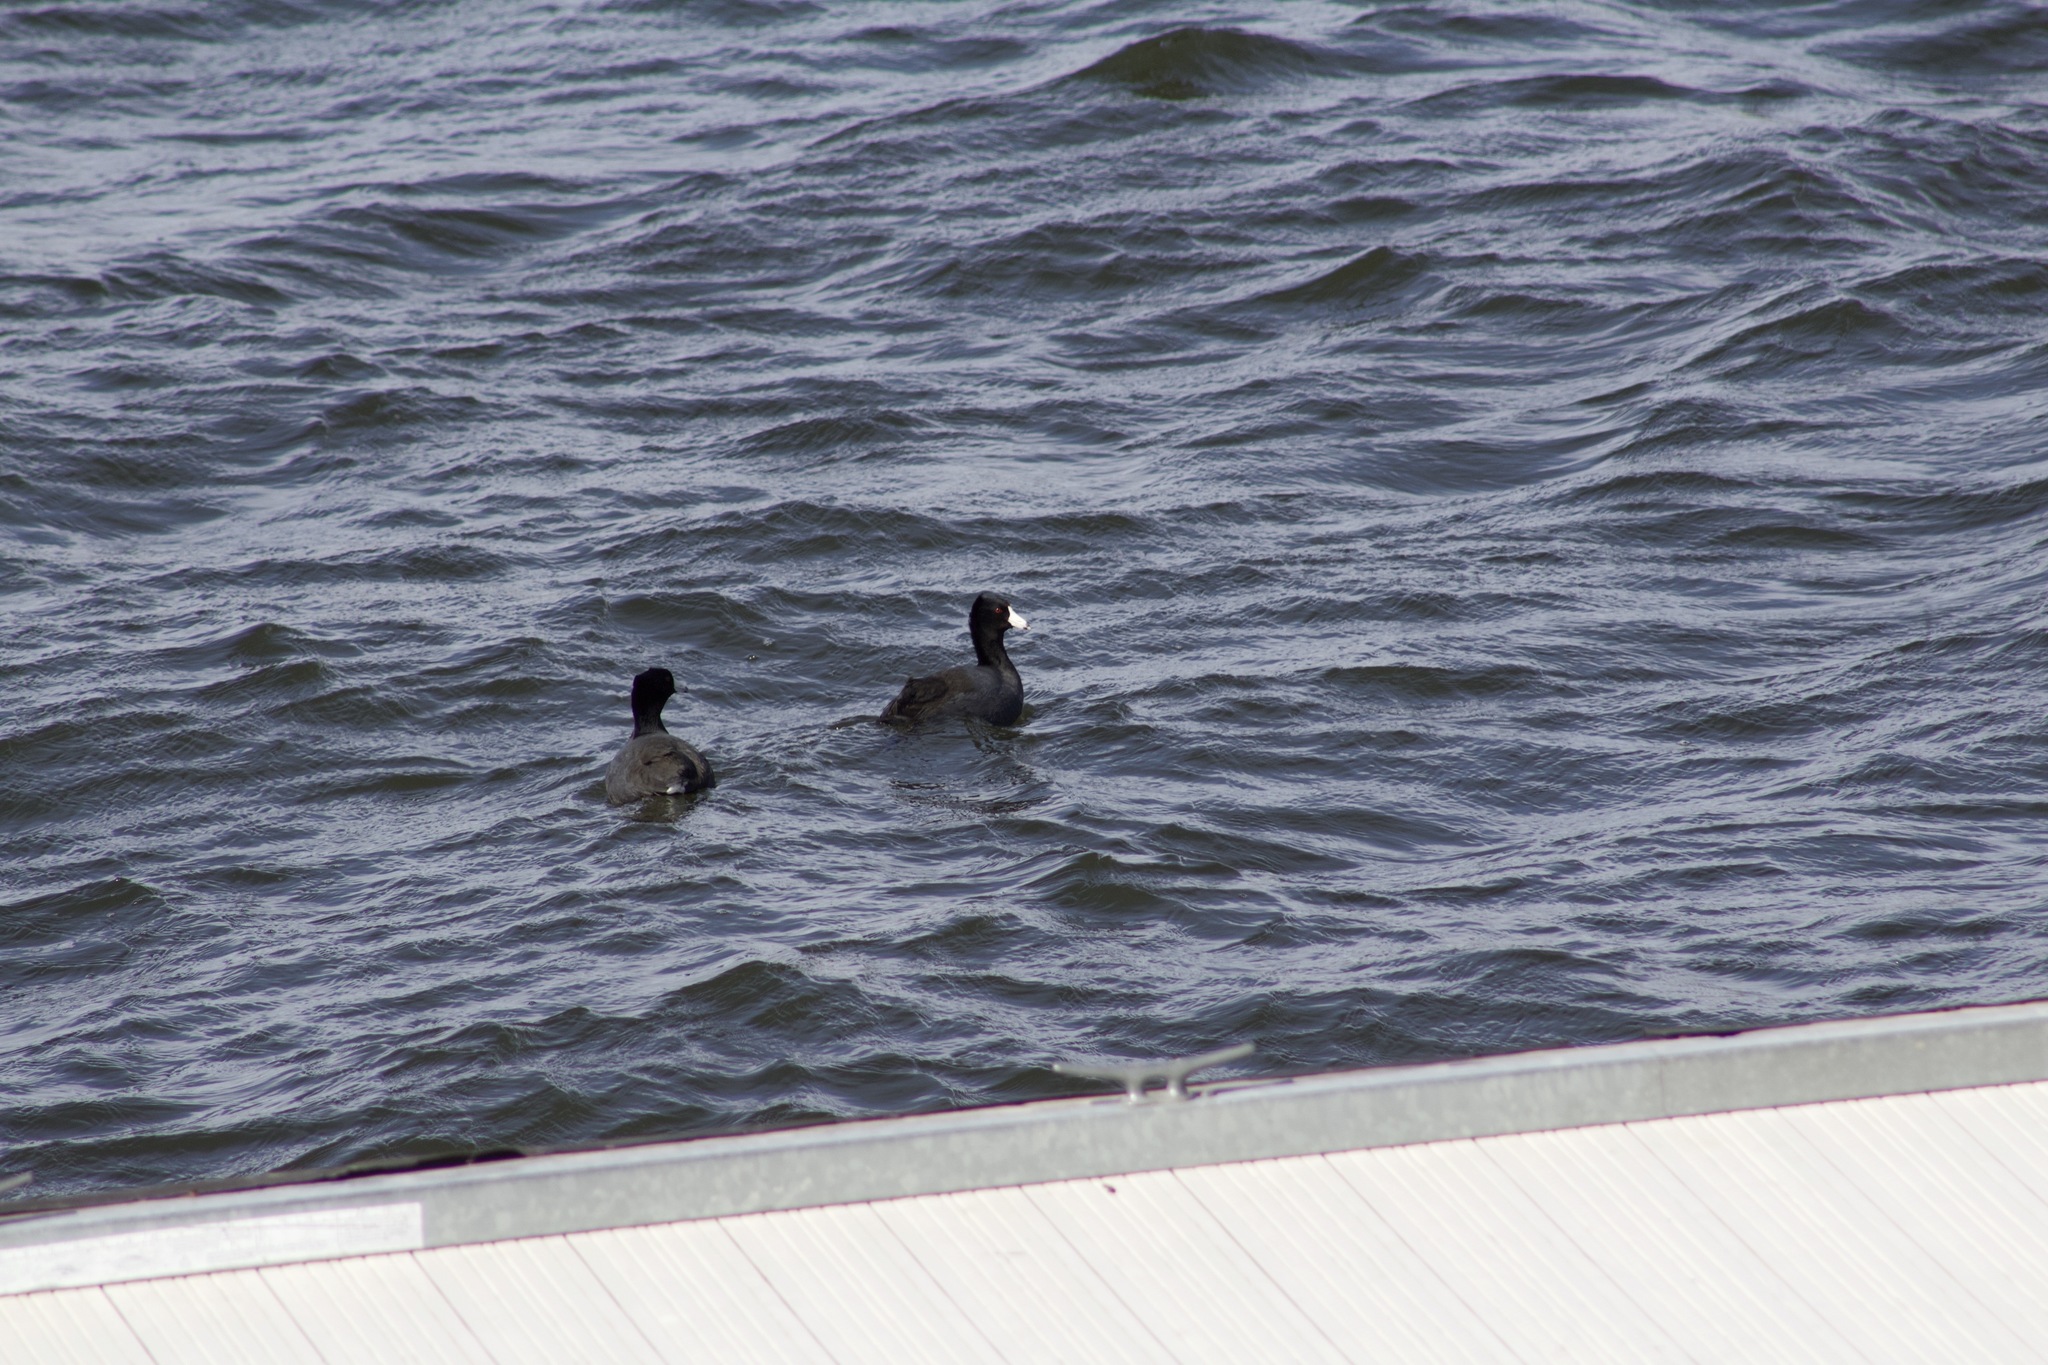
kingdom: Animalia
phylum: Chordata
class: Aves
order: Gruiformes
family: Rallidae
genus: Fulica
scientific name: Fulica americana
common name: American coot
